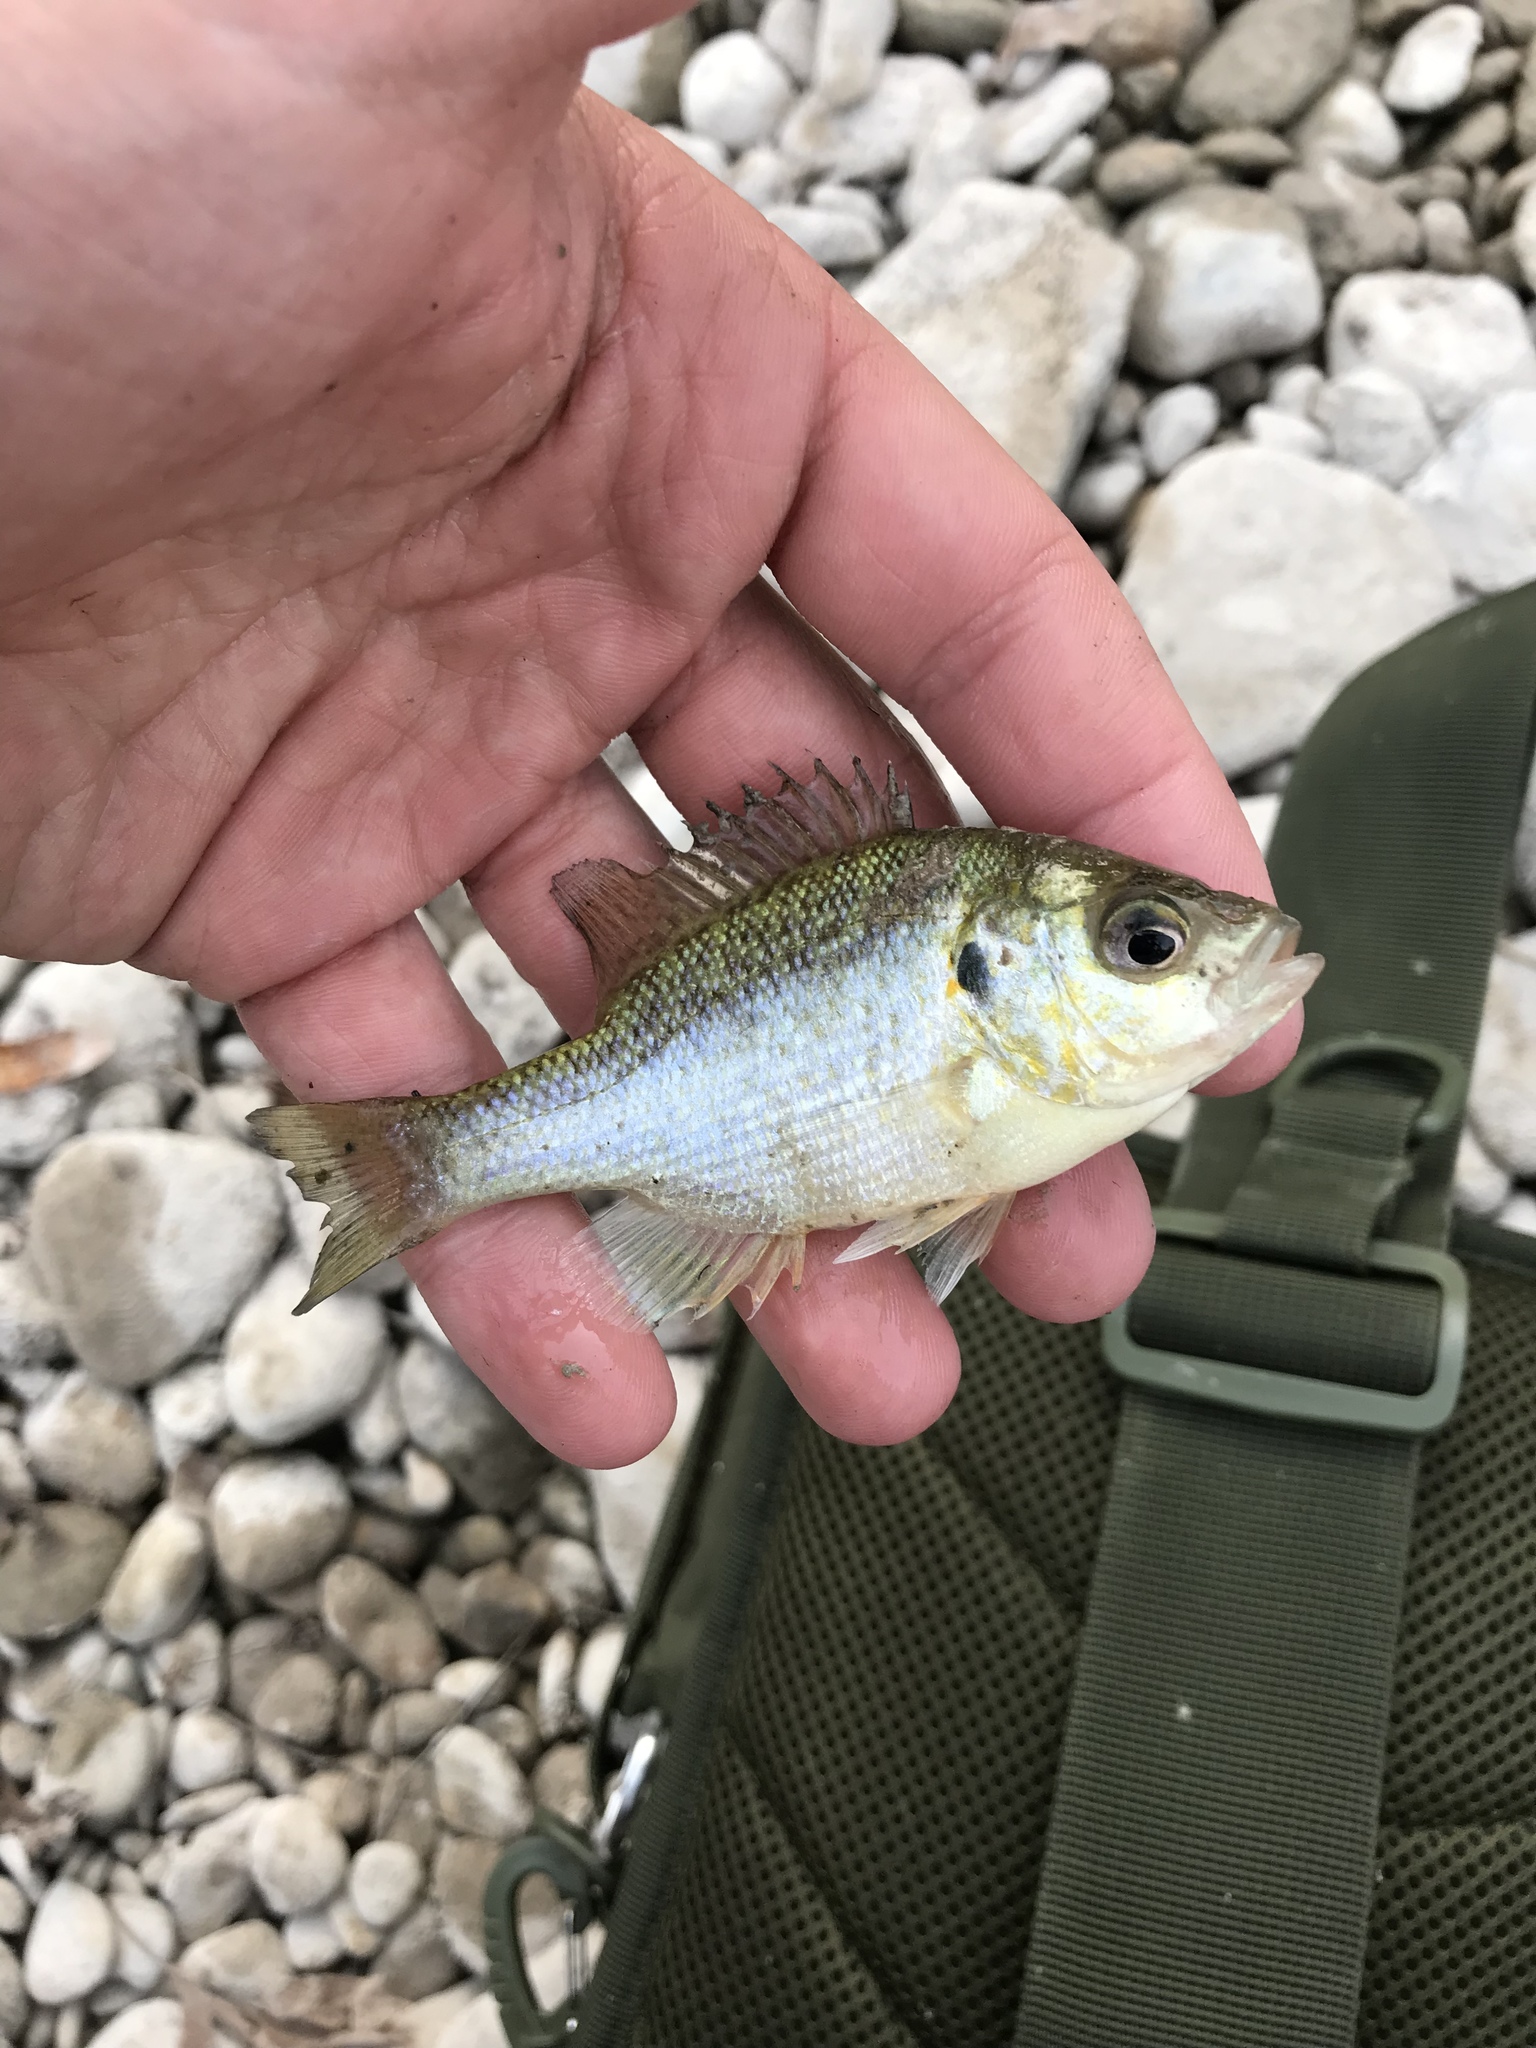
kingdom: Animalia
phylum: Chordata
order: Perciformes
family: Centrarchidae
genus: Lepomis
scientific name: Lepomis microlophus
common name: Redear sunfish
